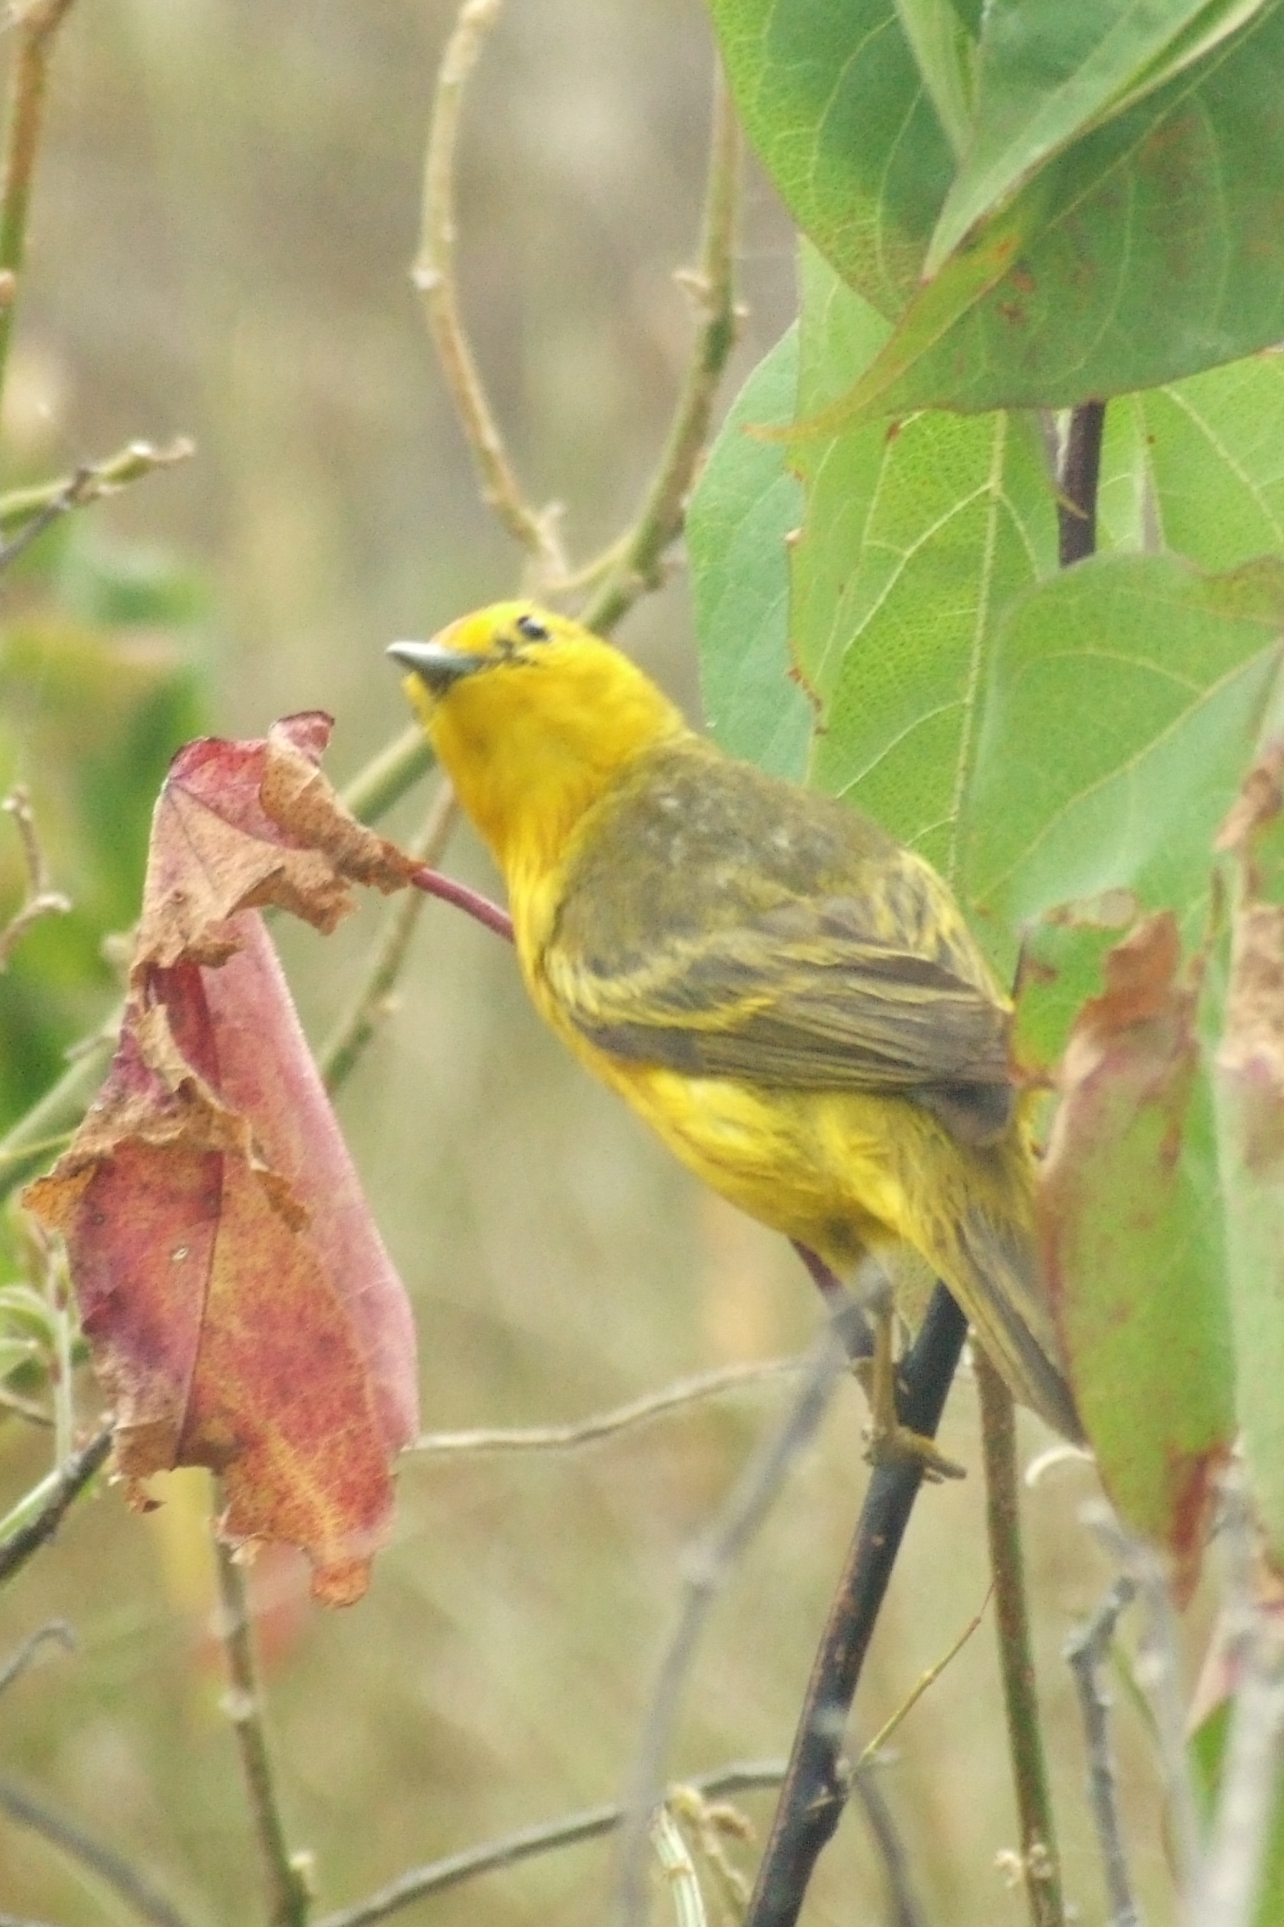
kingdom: Animalia
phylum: Chordata
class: Aves
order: Passeriformes
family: Parulidae
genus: Setophaga
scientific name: Setophaga petechia
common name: Yellow warbler
